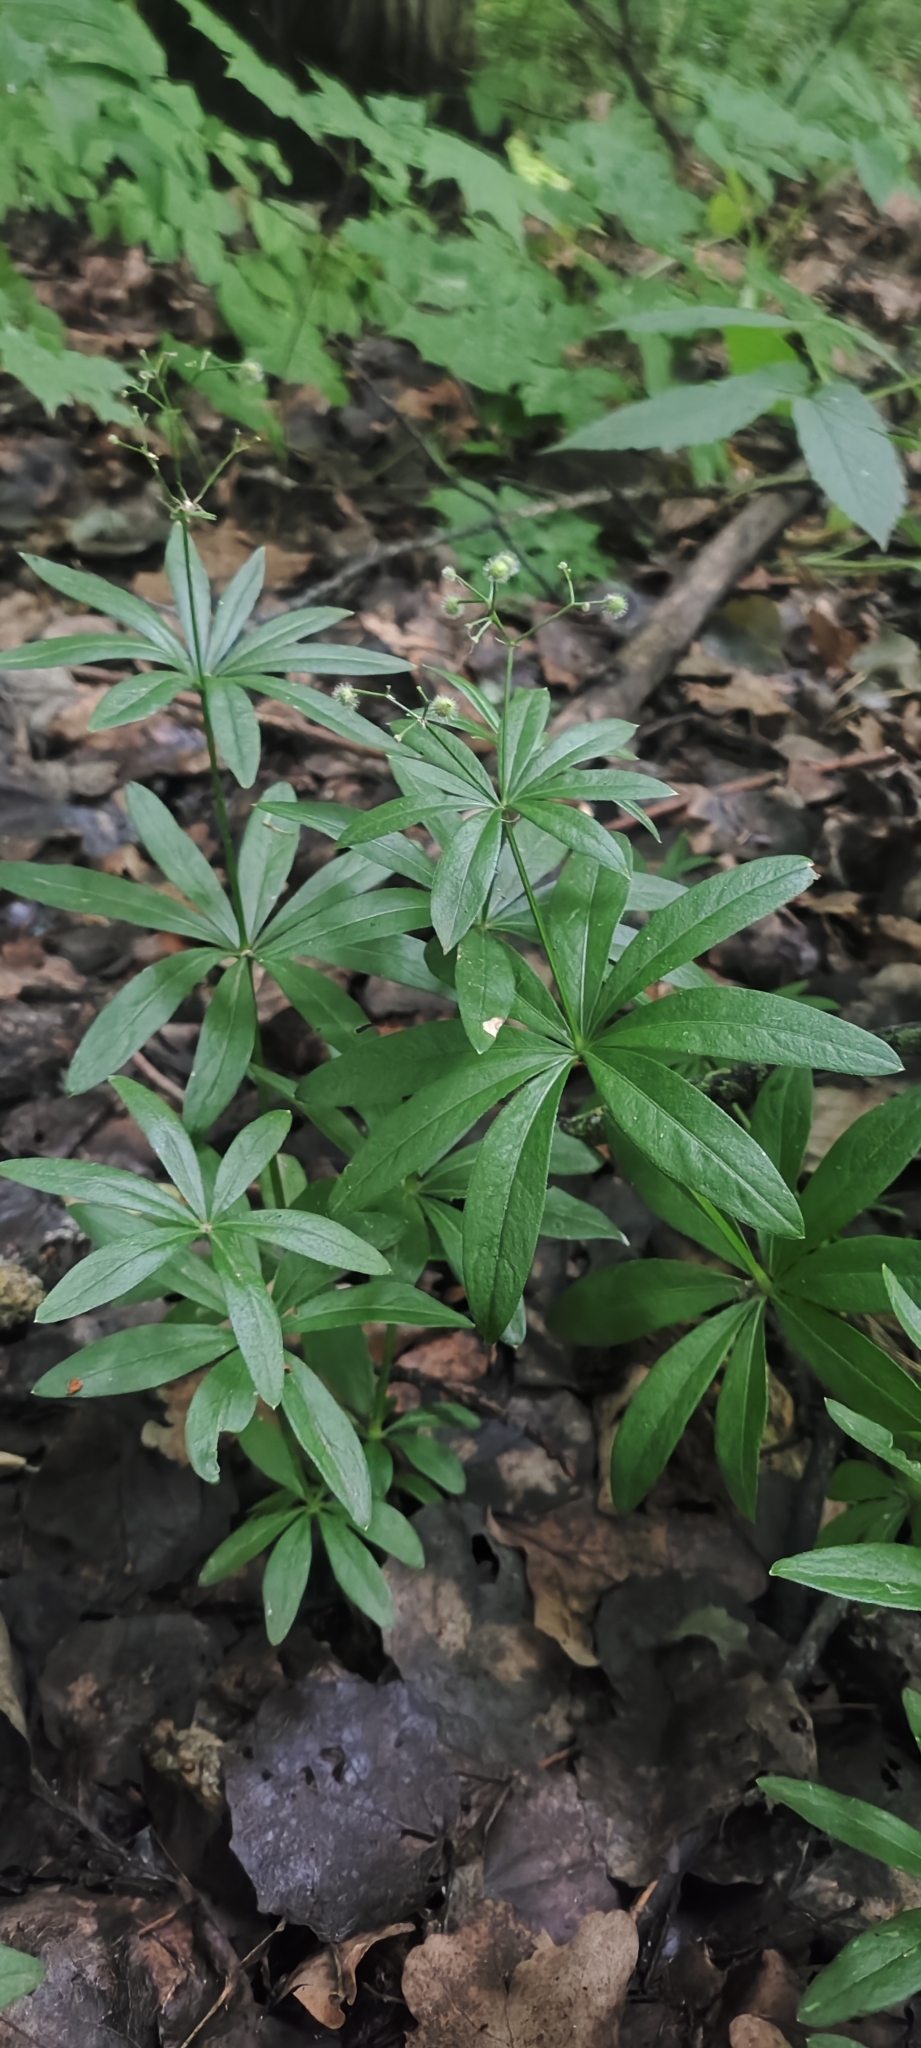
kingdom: Plantae
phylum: Tracheophyta
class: Magnoliopsida
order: Gentianales
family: Rubiaceae
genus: Galium
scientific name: Galium odoratum
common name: Sweet woodruff
